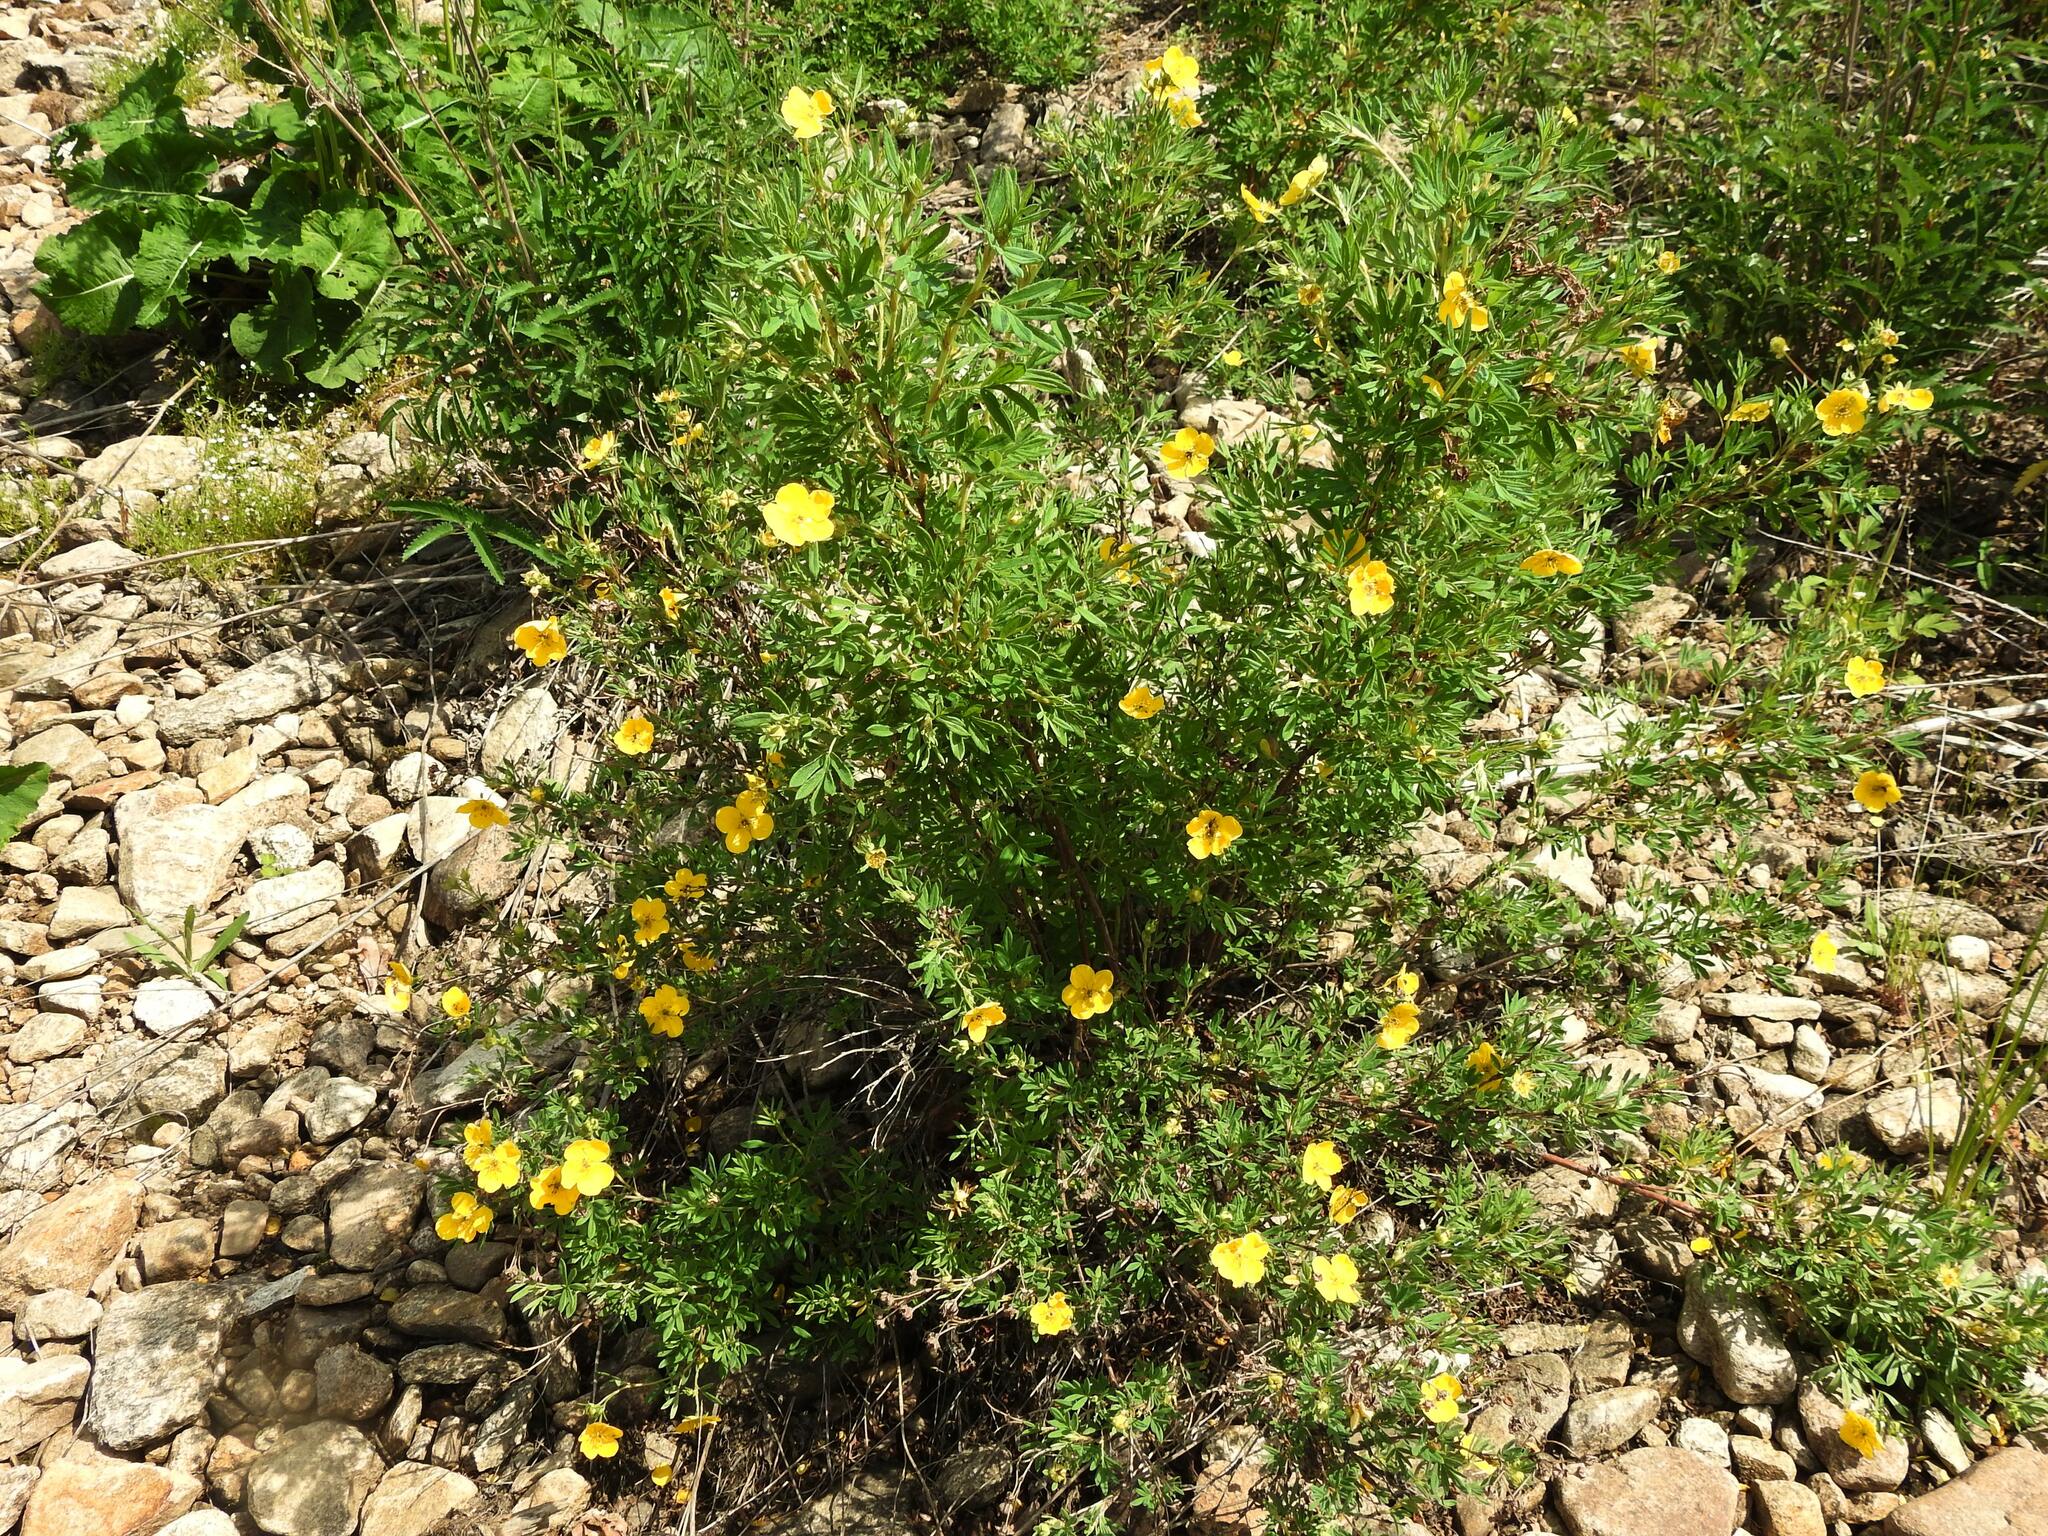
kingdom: Plantae
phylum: Tracheophyta
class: Magnoliopsida
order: Rosales
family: Rosaceae
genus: Dasiphora
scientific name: Dasiphora fruticosa
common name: Shrubby cinquefoil
